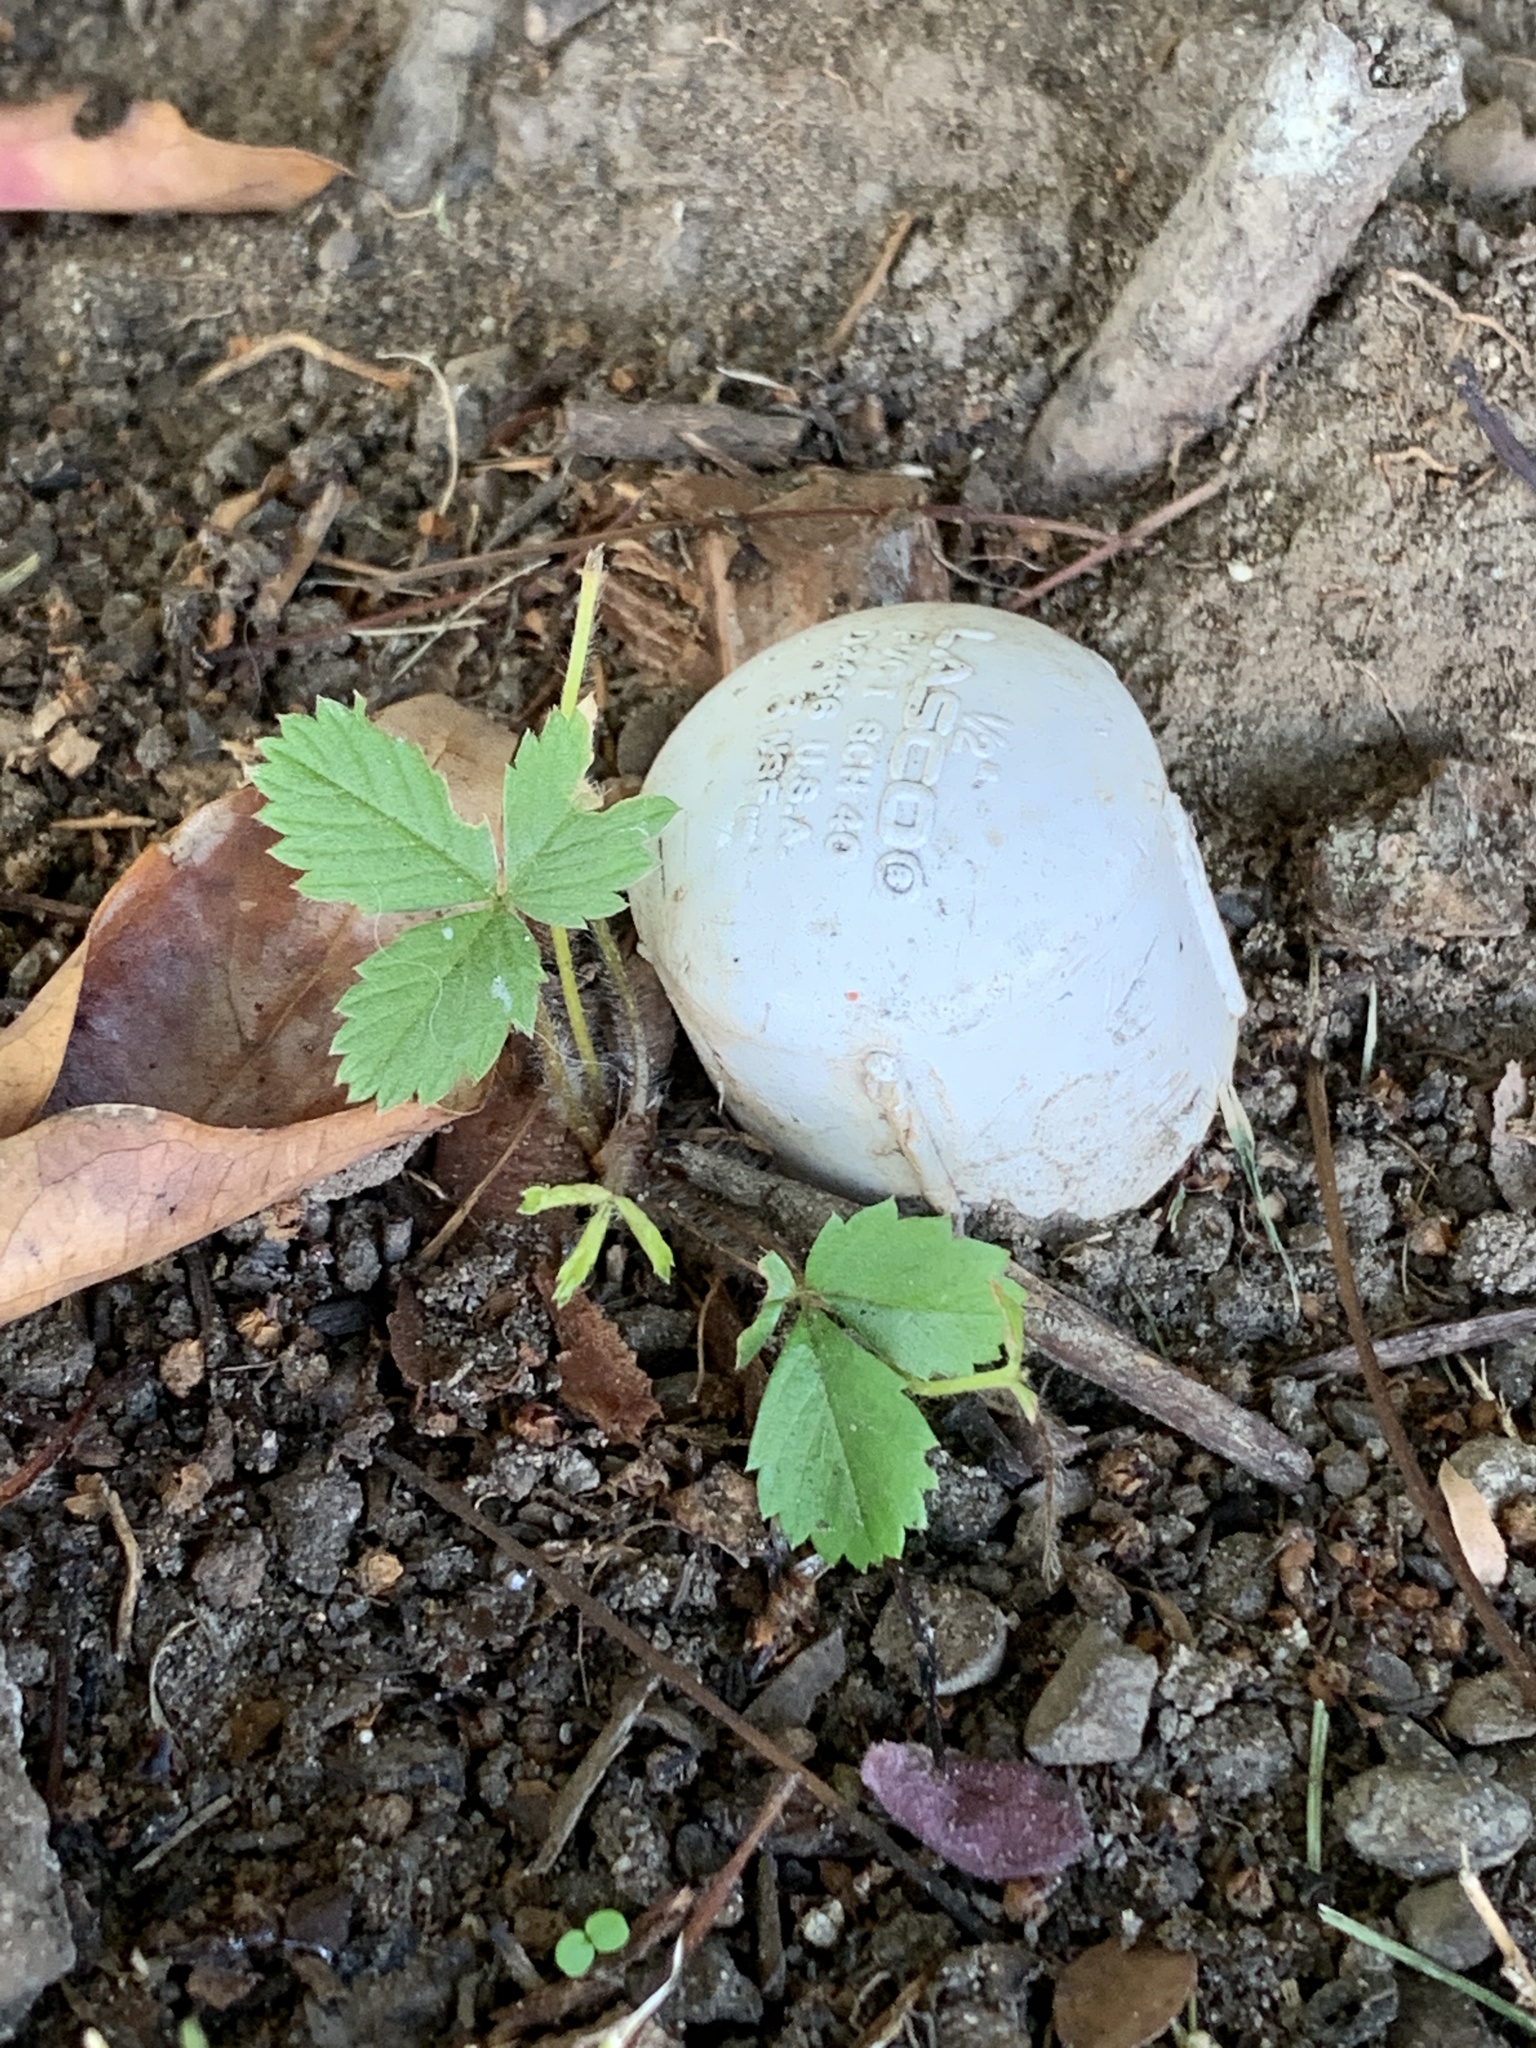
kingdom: Plantae
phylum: Tracheophyta
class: Magnoliopsida
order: Rosales
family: Rosaceae
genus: Fragaria
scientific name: Fragaria vesca
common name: Wild strawberry
